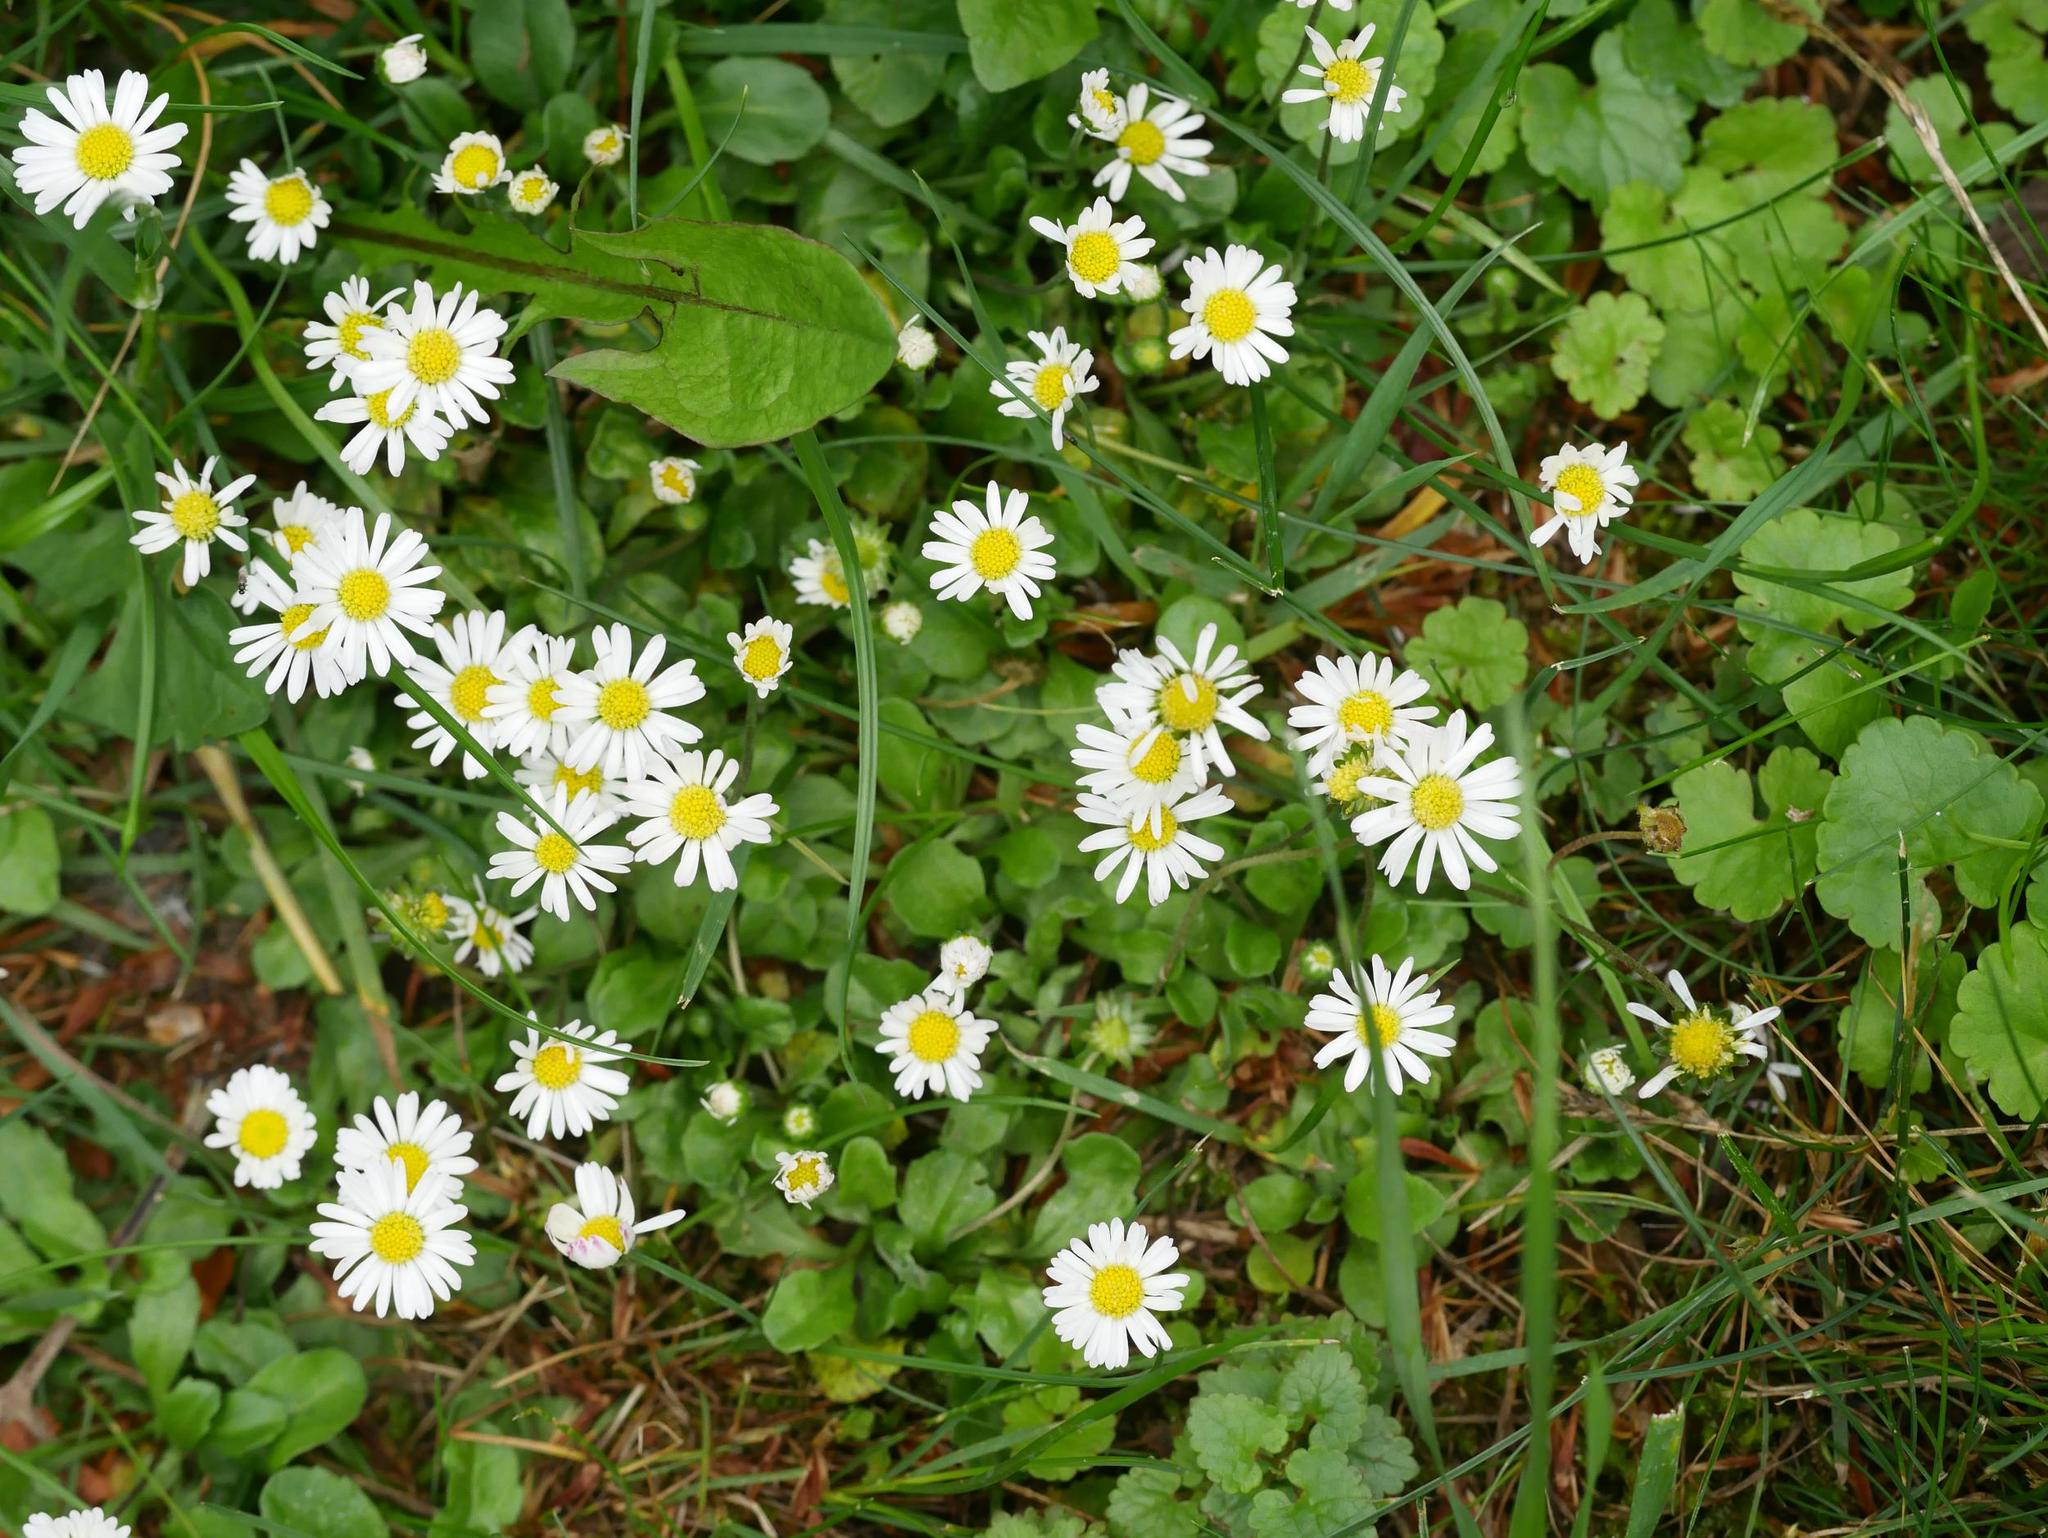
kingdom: Plantae
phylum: Tracheophyta
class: Magnoliopsida
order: Asterales
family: Asteraceae
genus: Bellis
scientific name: Bellis perennis
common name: Lawndaisy
